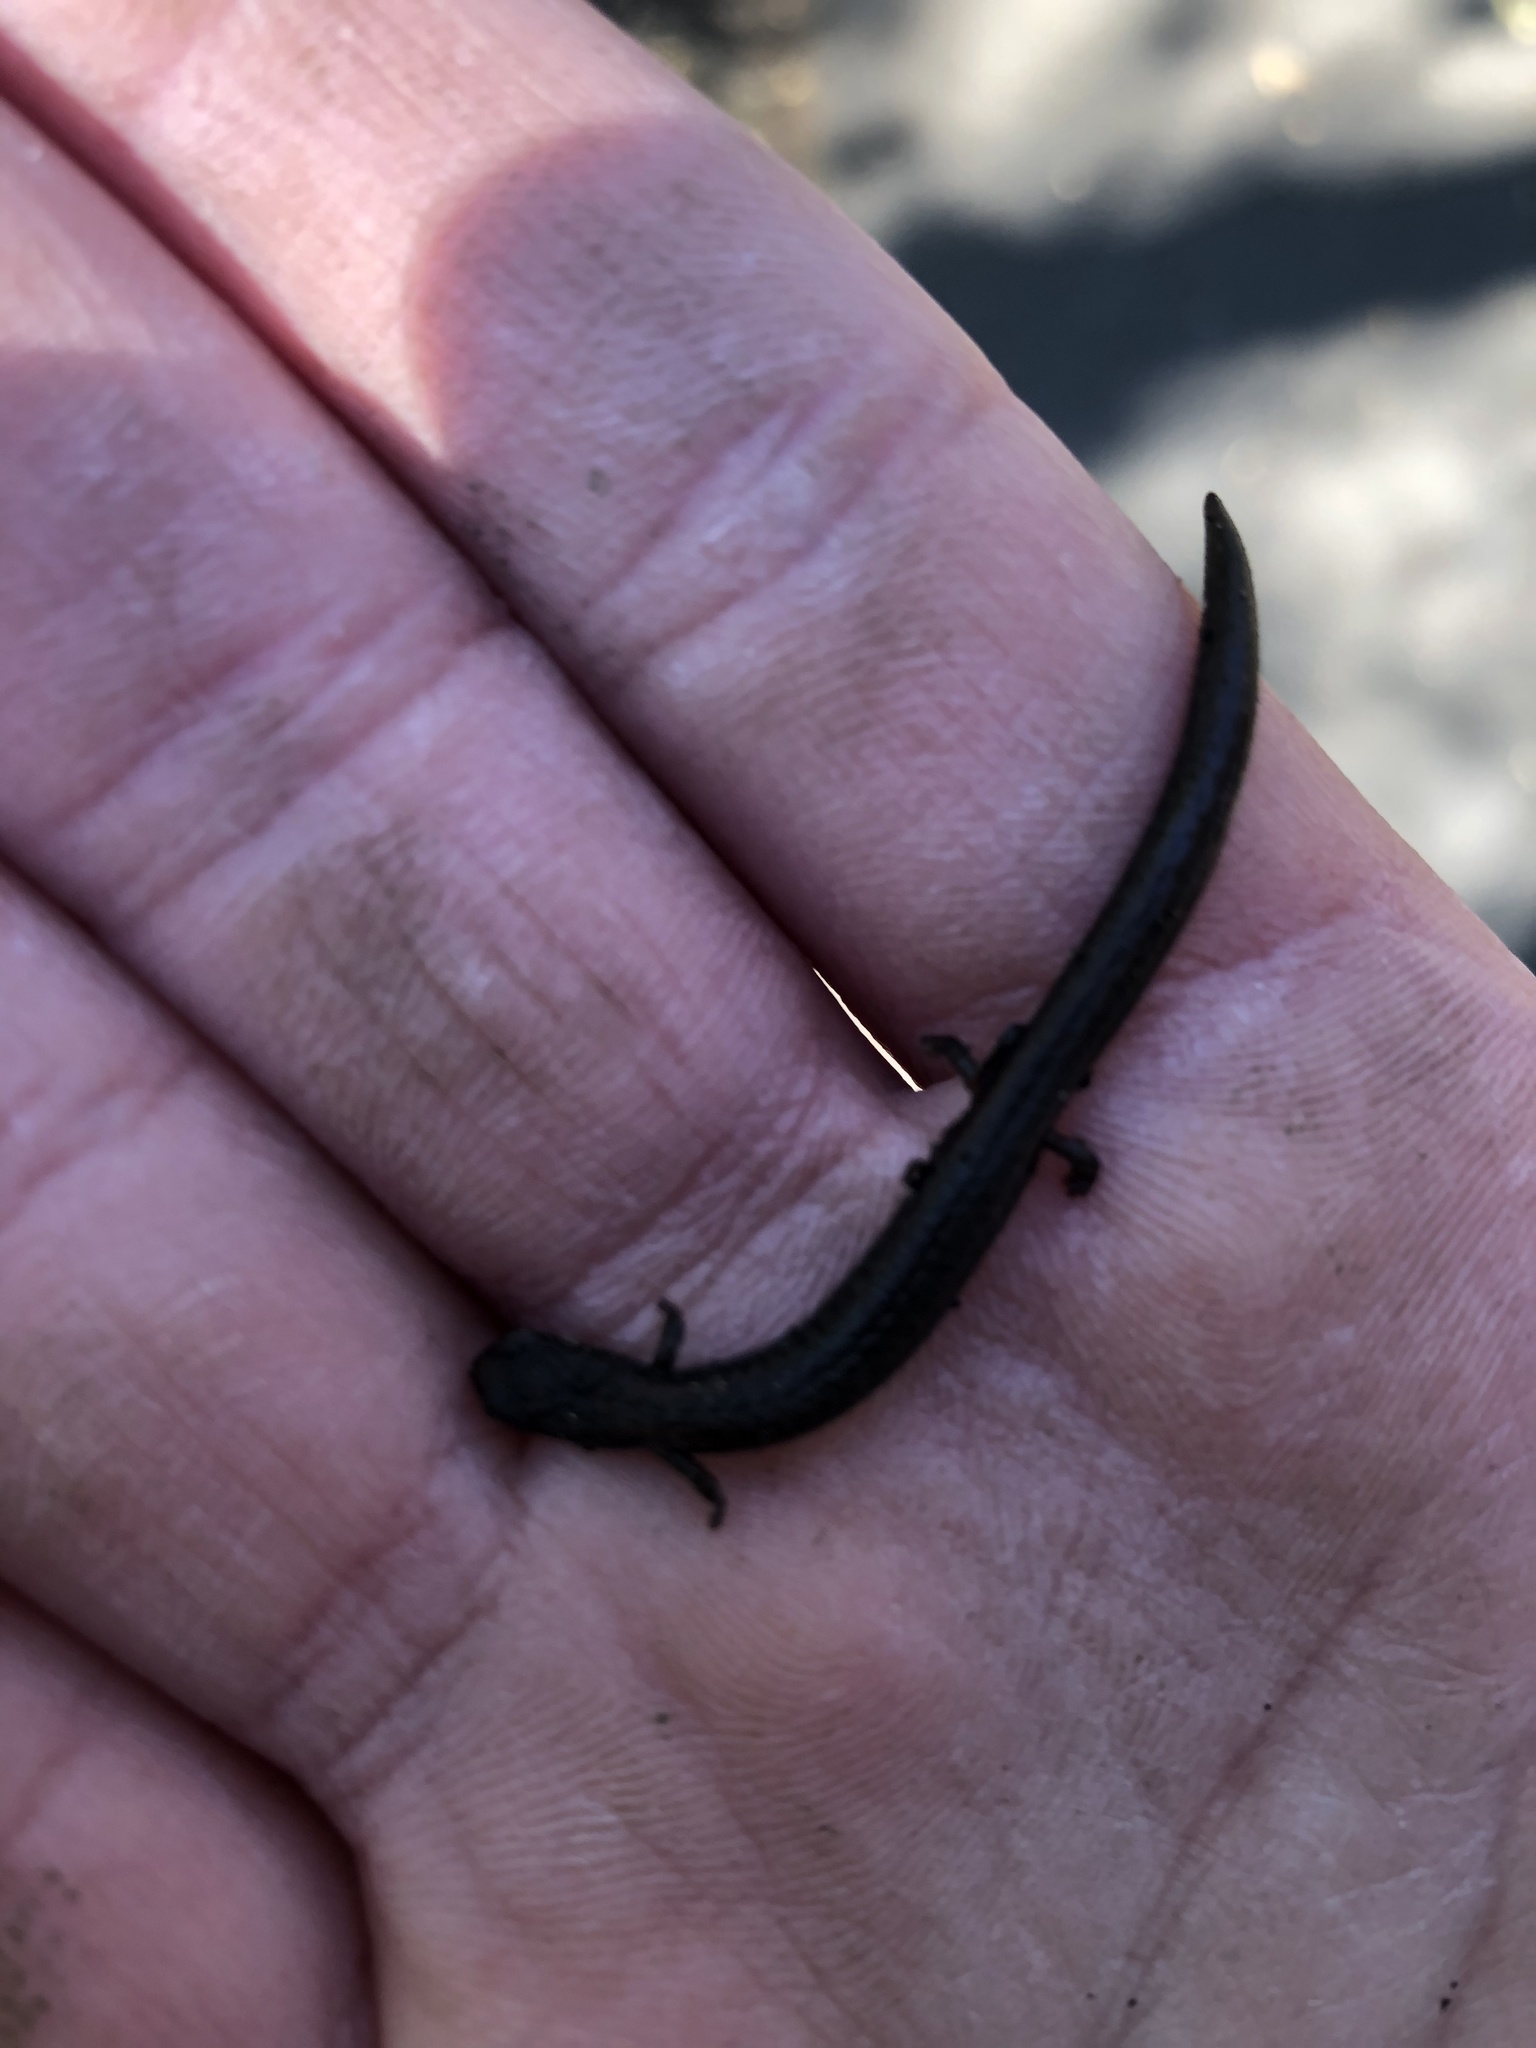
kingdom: Animalia
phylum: Chordata
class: Amphibia
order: Caudata
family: Plethodontidae
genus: Batrachoseps
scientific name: Batrachoseps attenuatus
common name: California slender salamander
